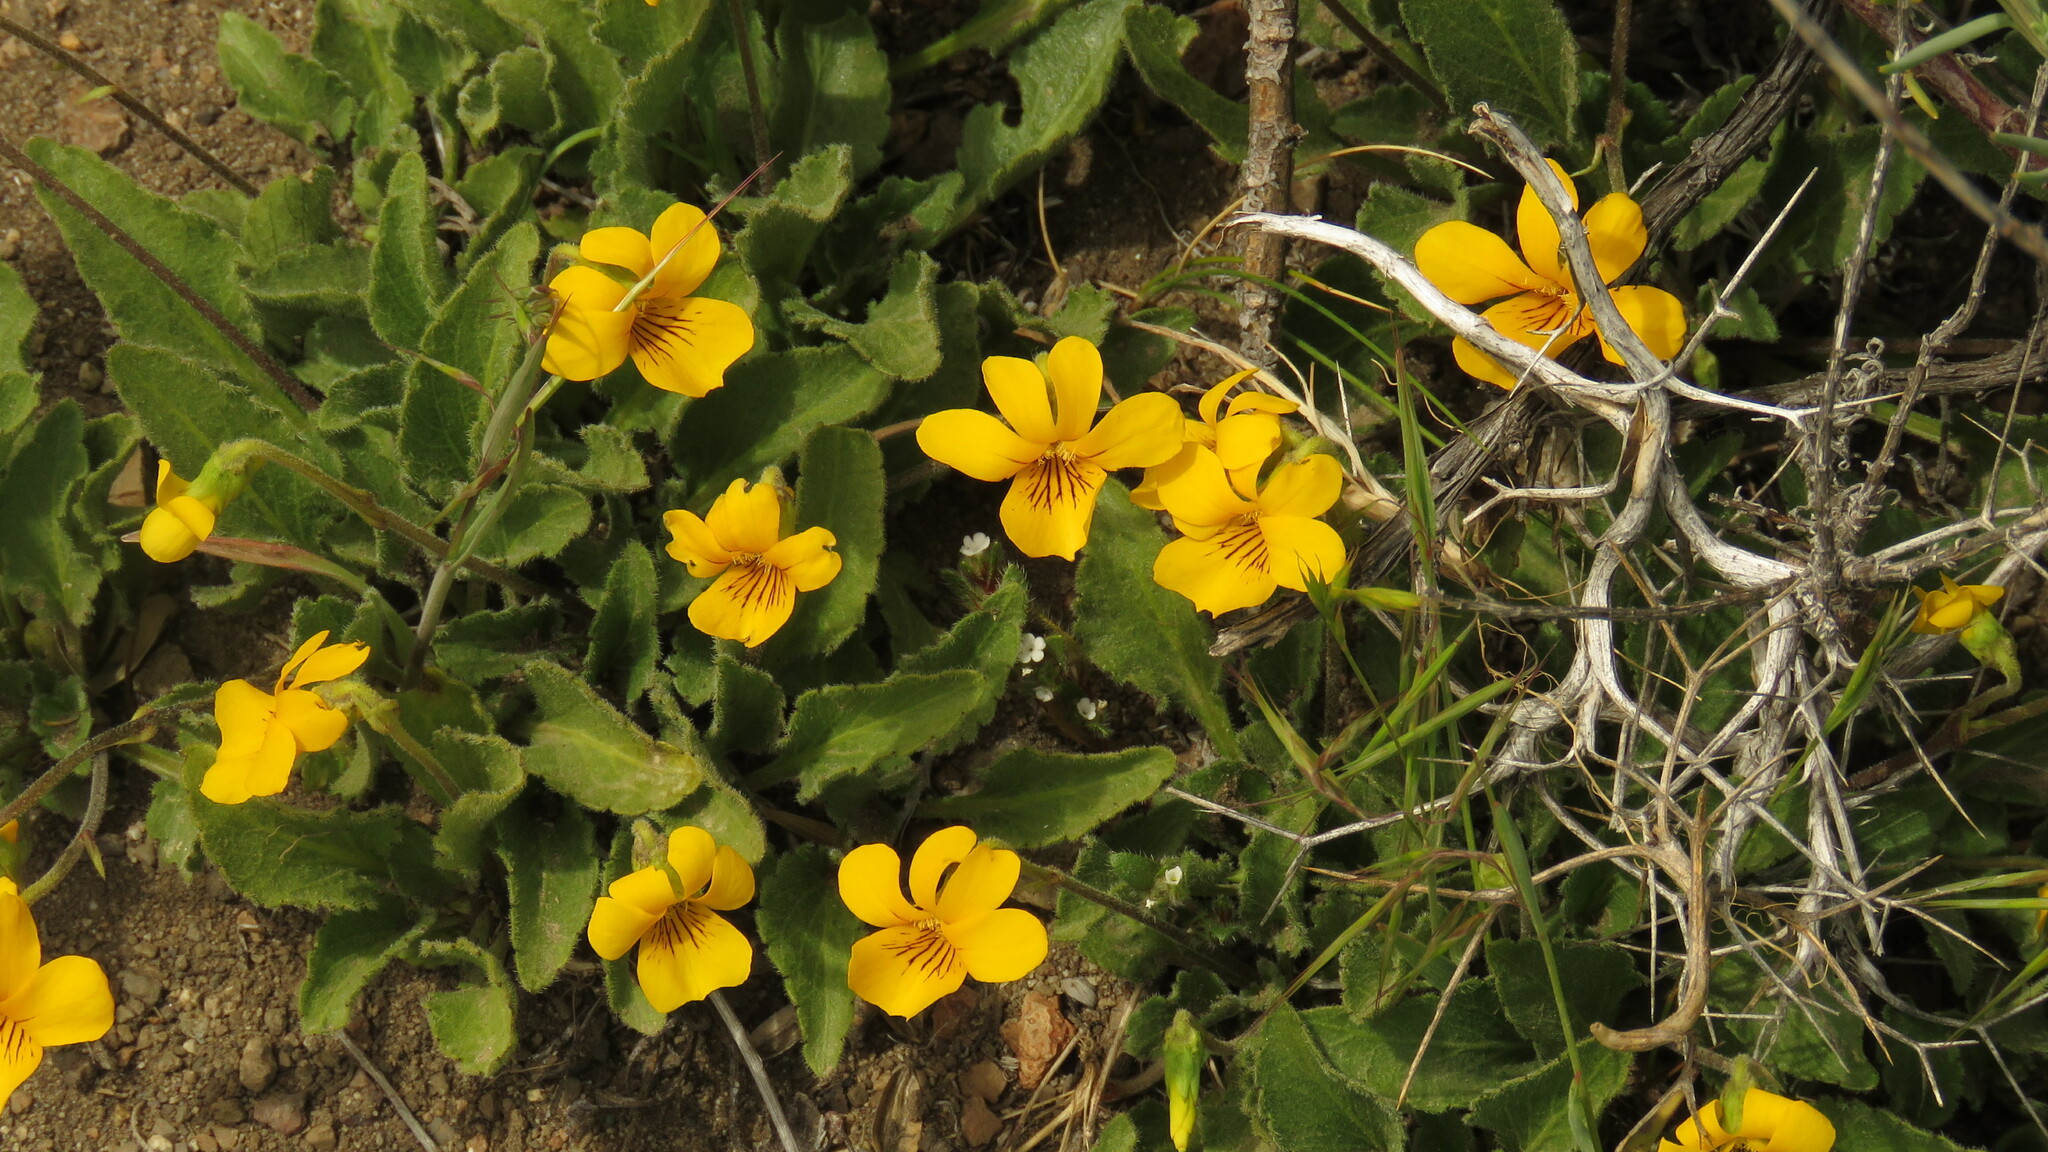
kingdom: Plantae
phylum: Tracheophyta
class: Magnoliopsida
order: Malpighiales
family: Violaceae
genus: Viola
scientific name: Viola maculata
